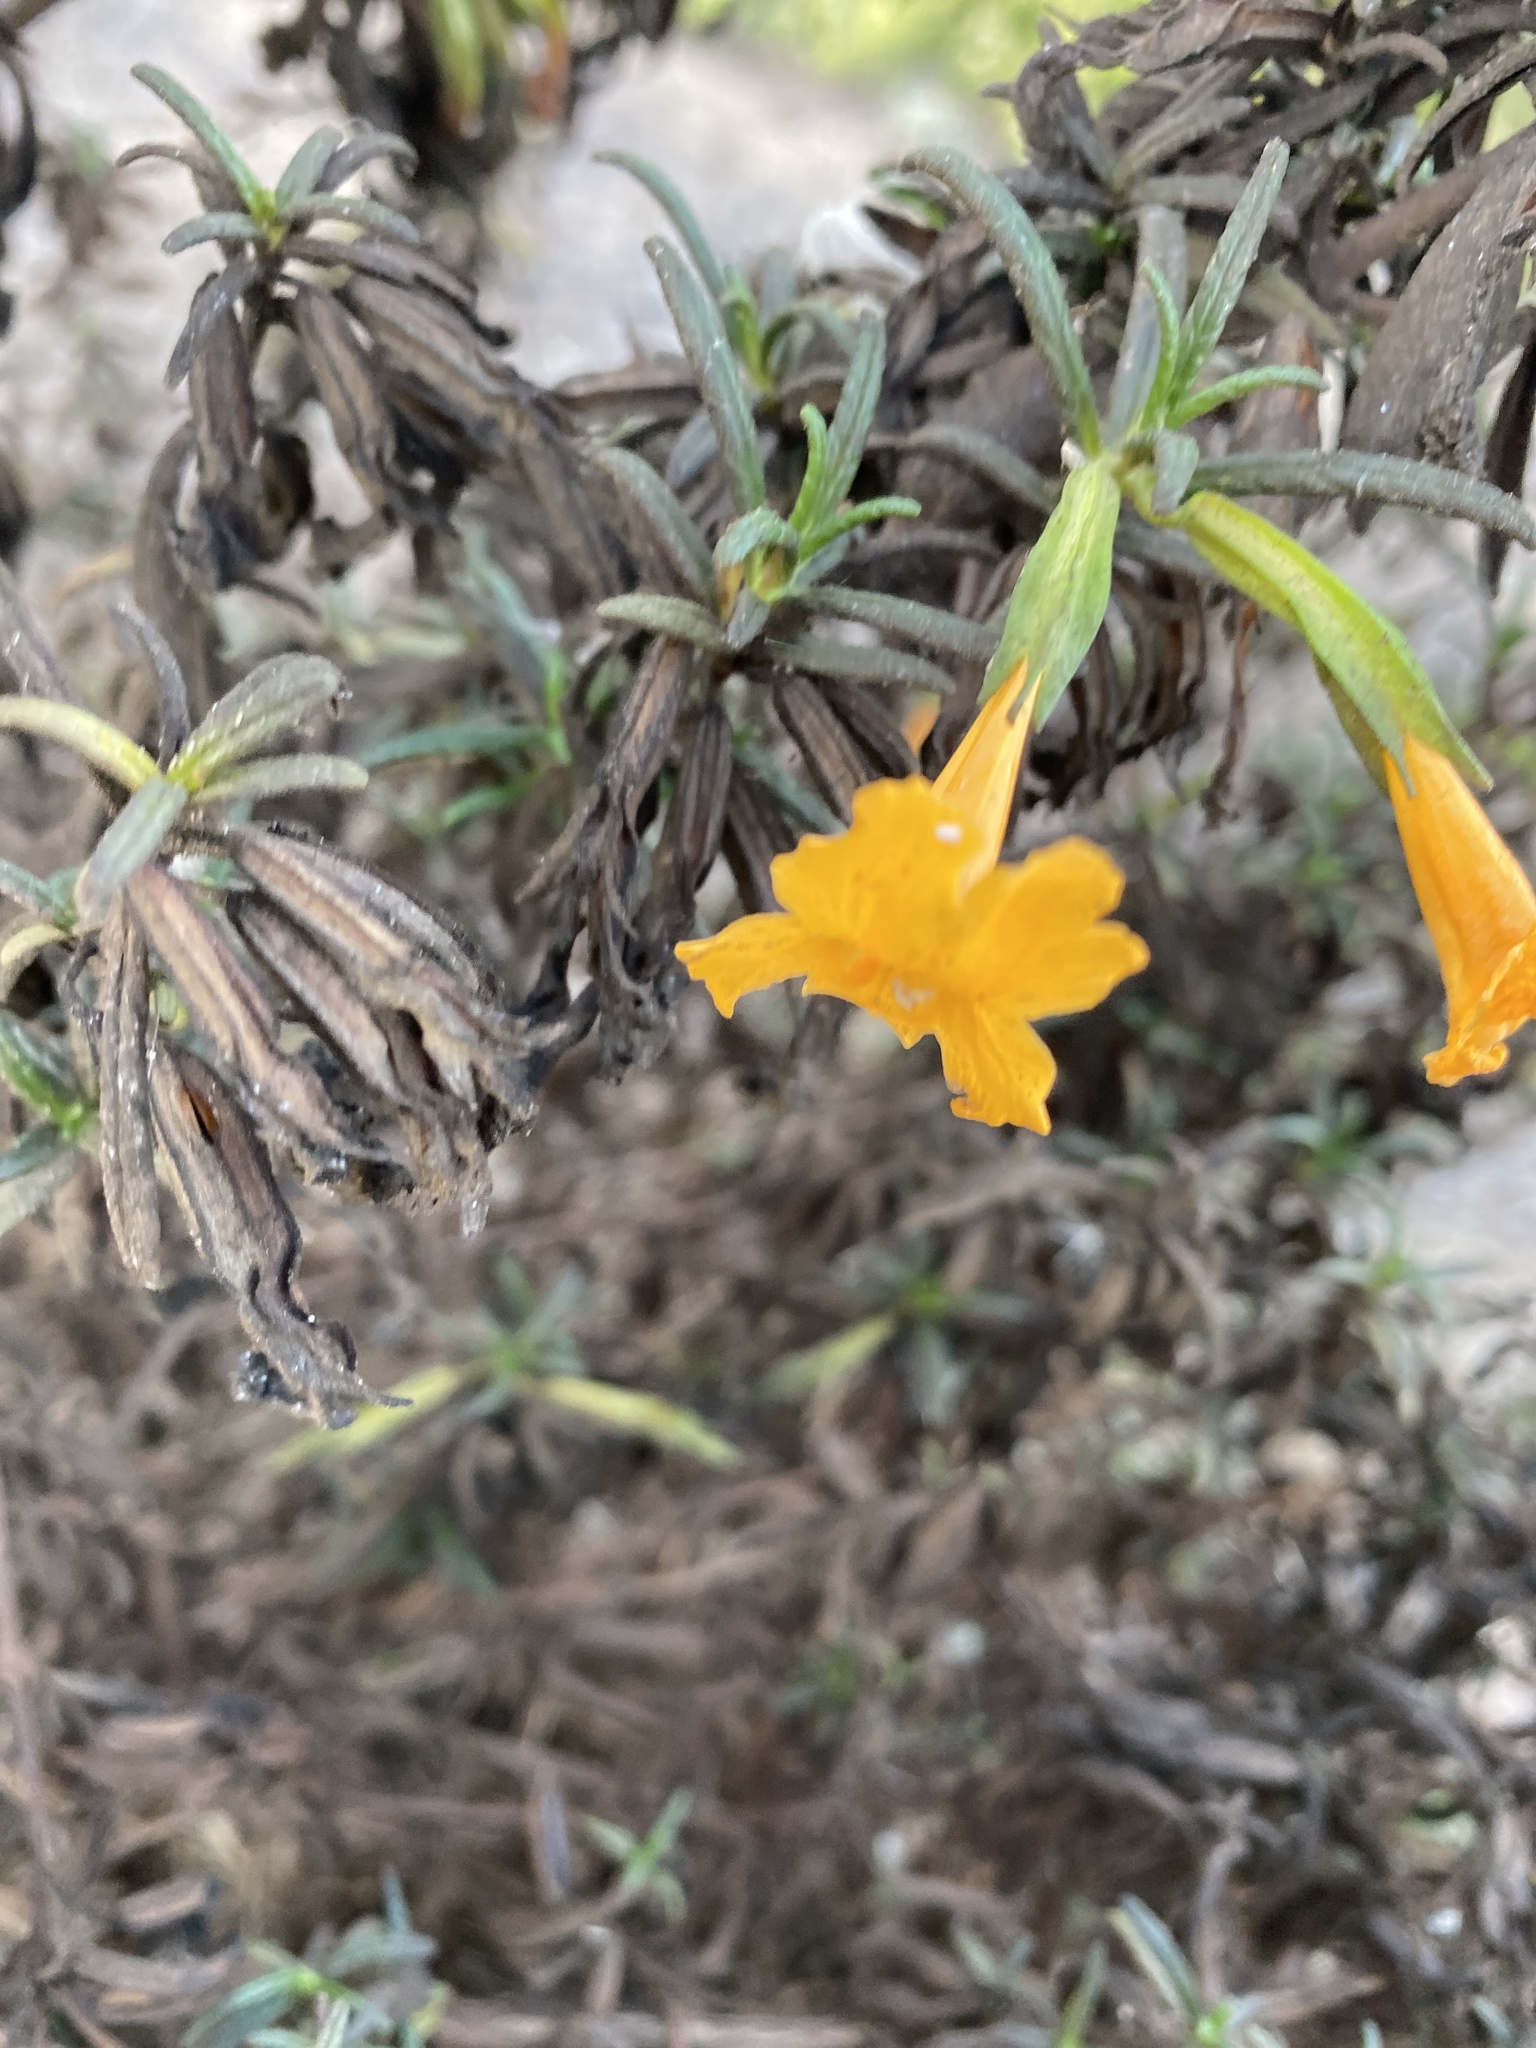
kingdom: Plantae
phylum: Tracheophyta
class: Magnoliopsida
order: Lamiales
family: Phrymaceae
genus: Diplacus
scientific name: Diplacus aurantiacus
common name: Bush monkey-flower
